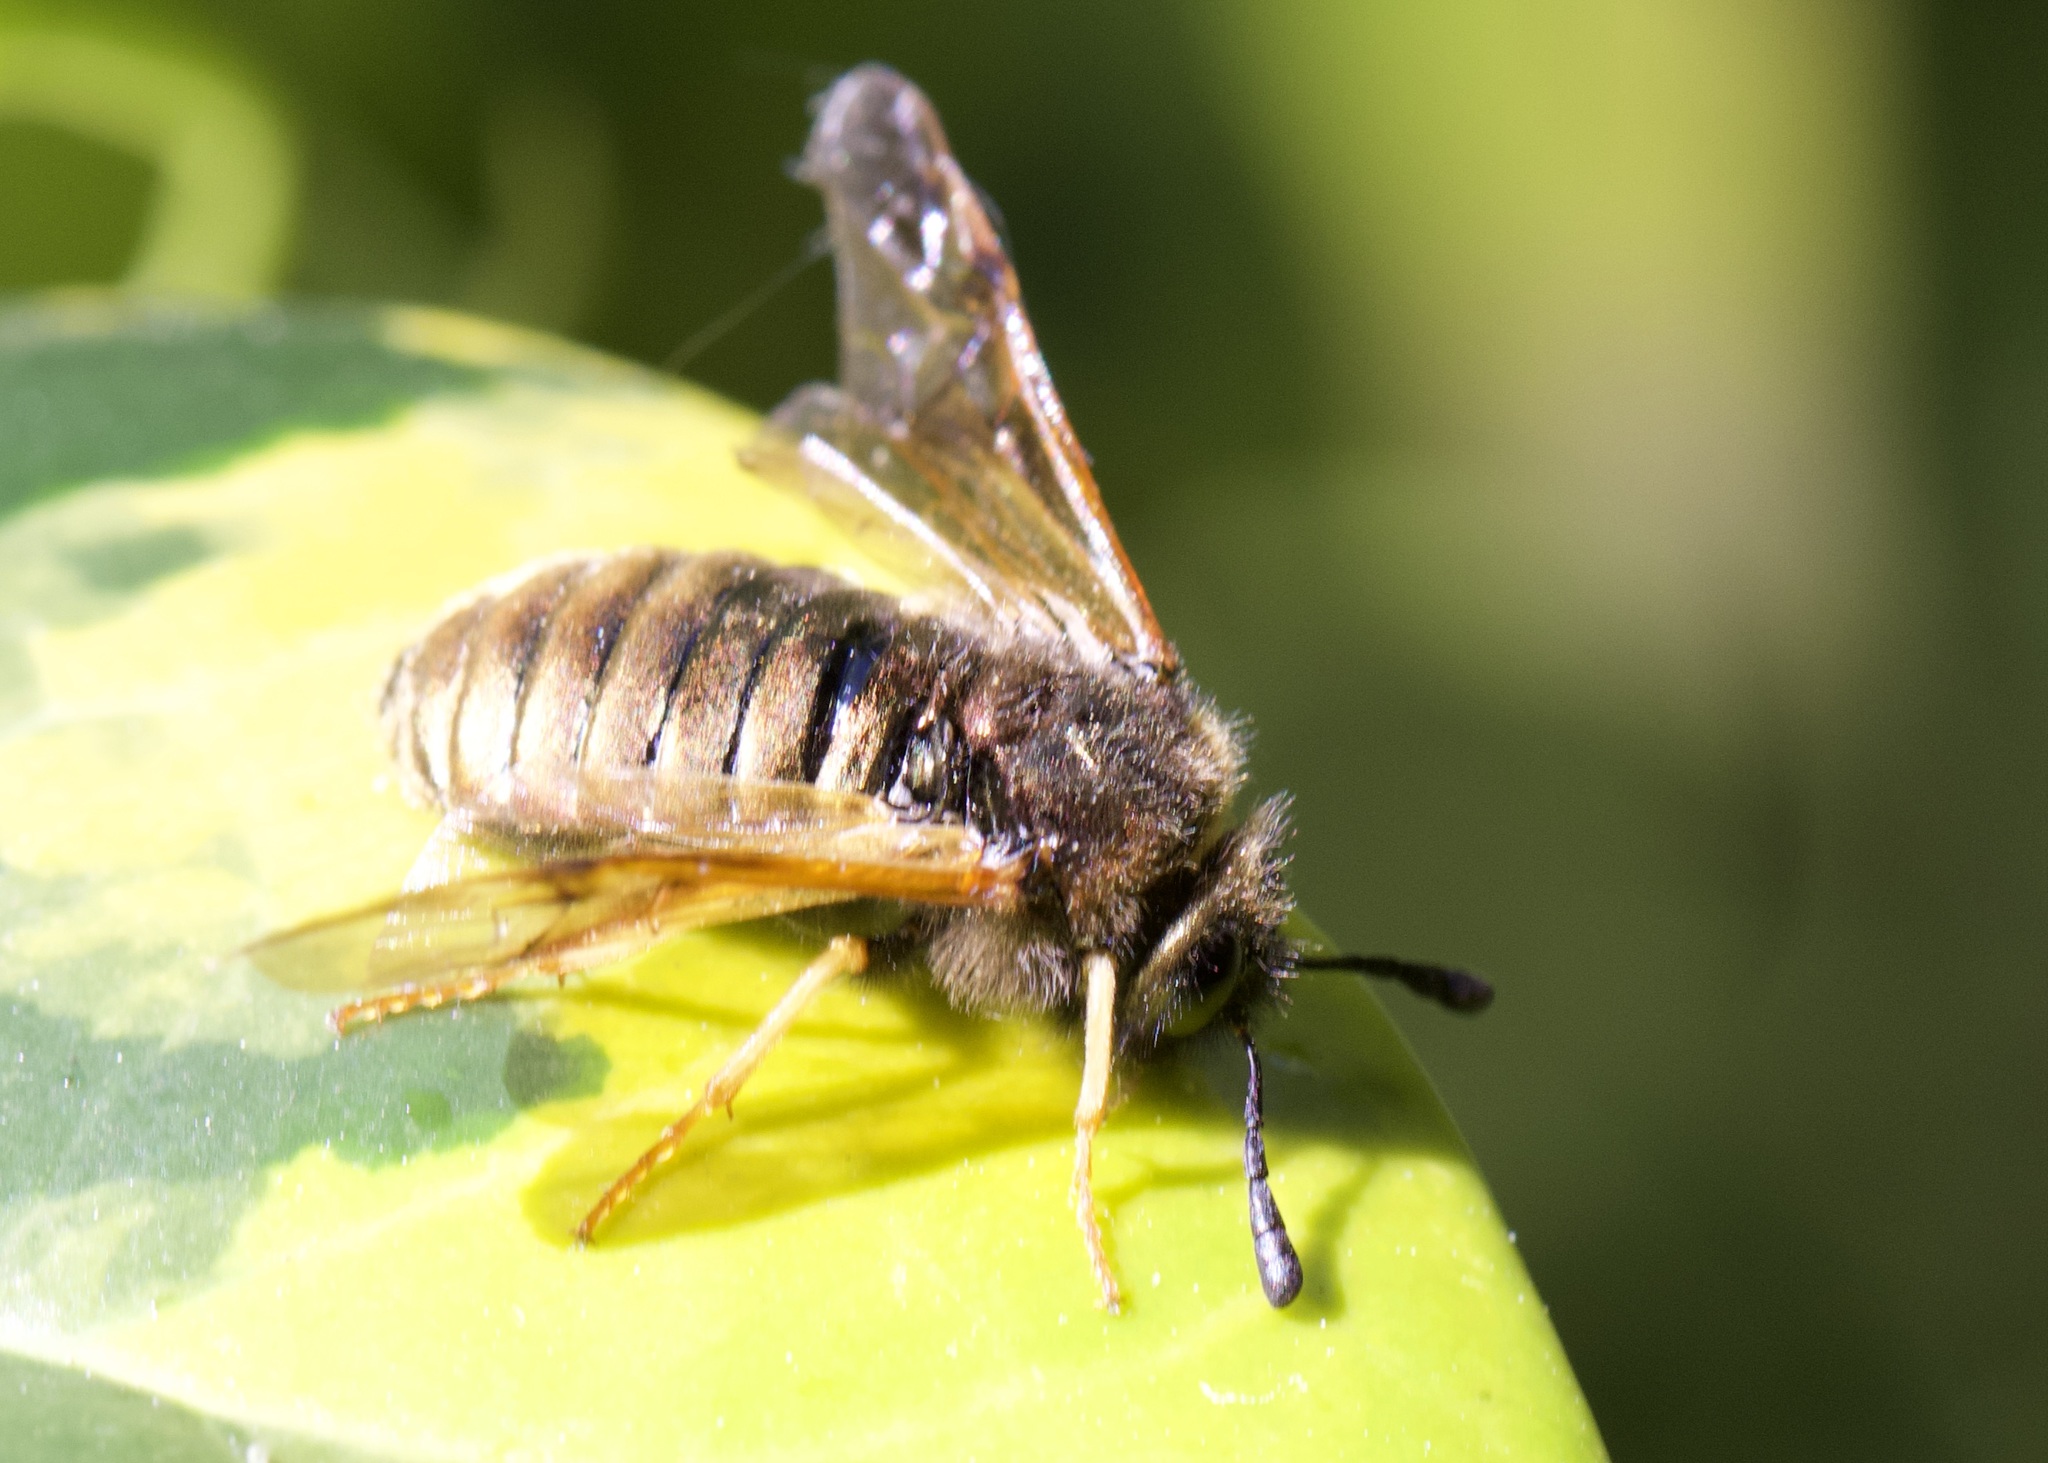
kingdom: Animalia
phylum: Arthropoda
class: Insecta
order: Hymenoptera
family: Cimbicidae
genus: Abia
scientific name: Abia lonicerae
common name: Cimbicid sawfly
